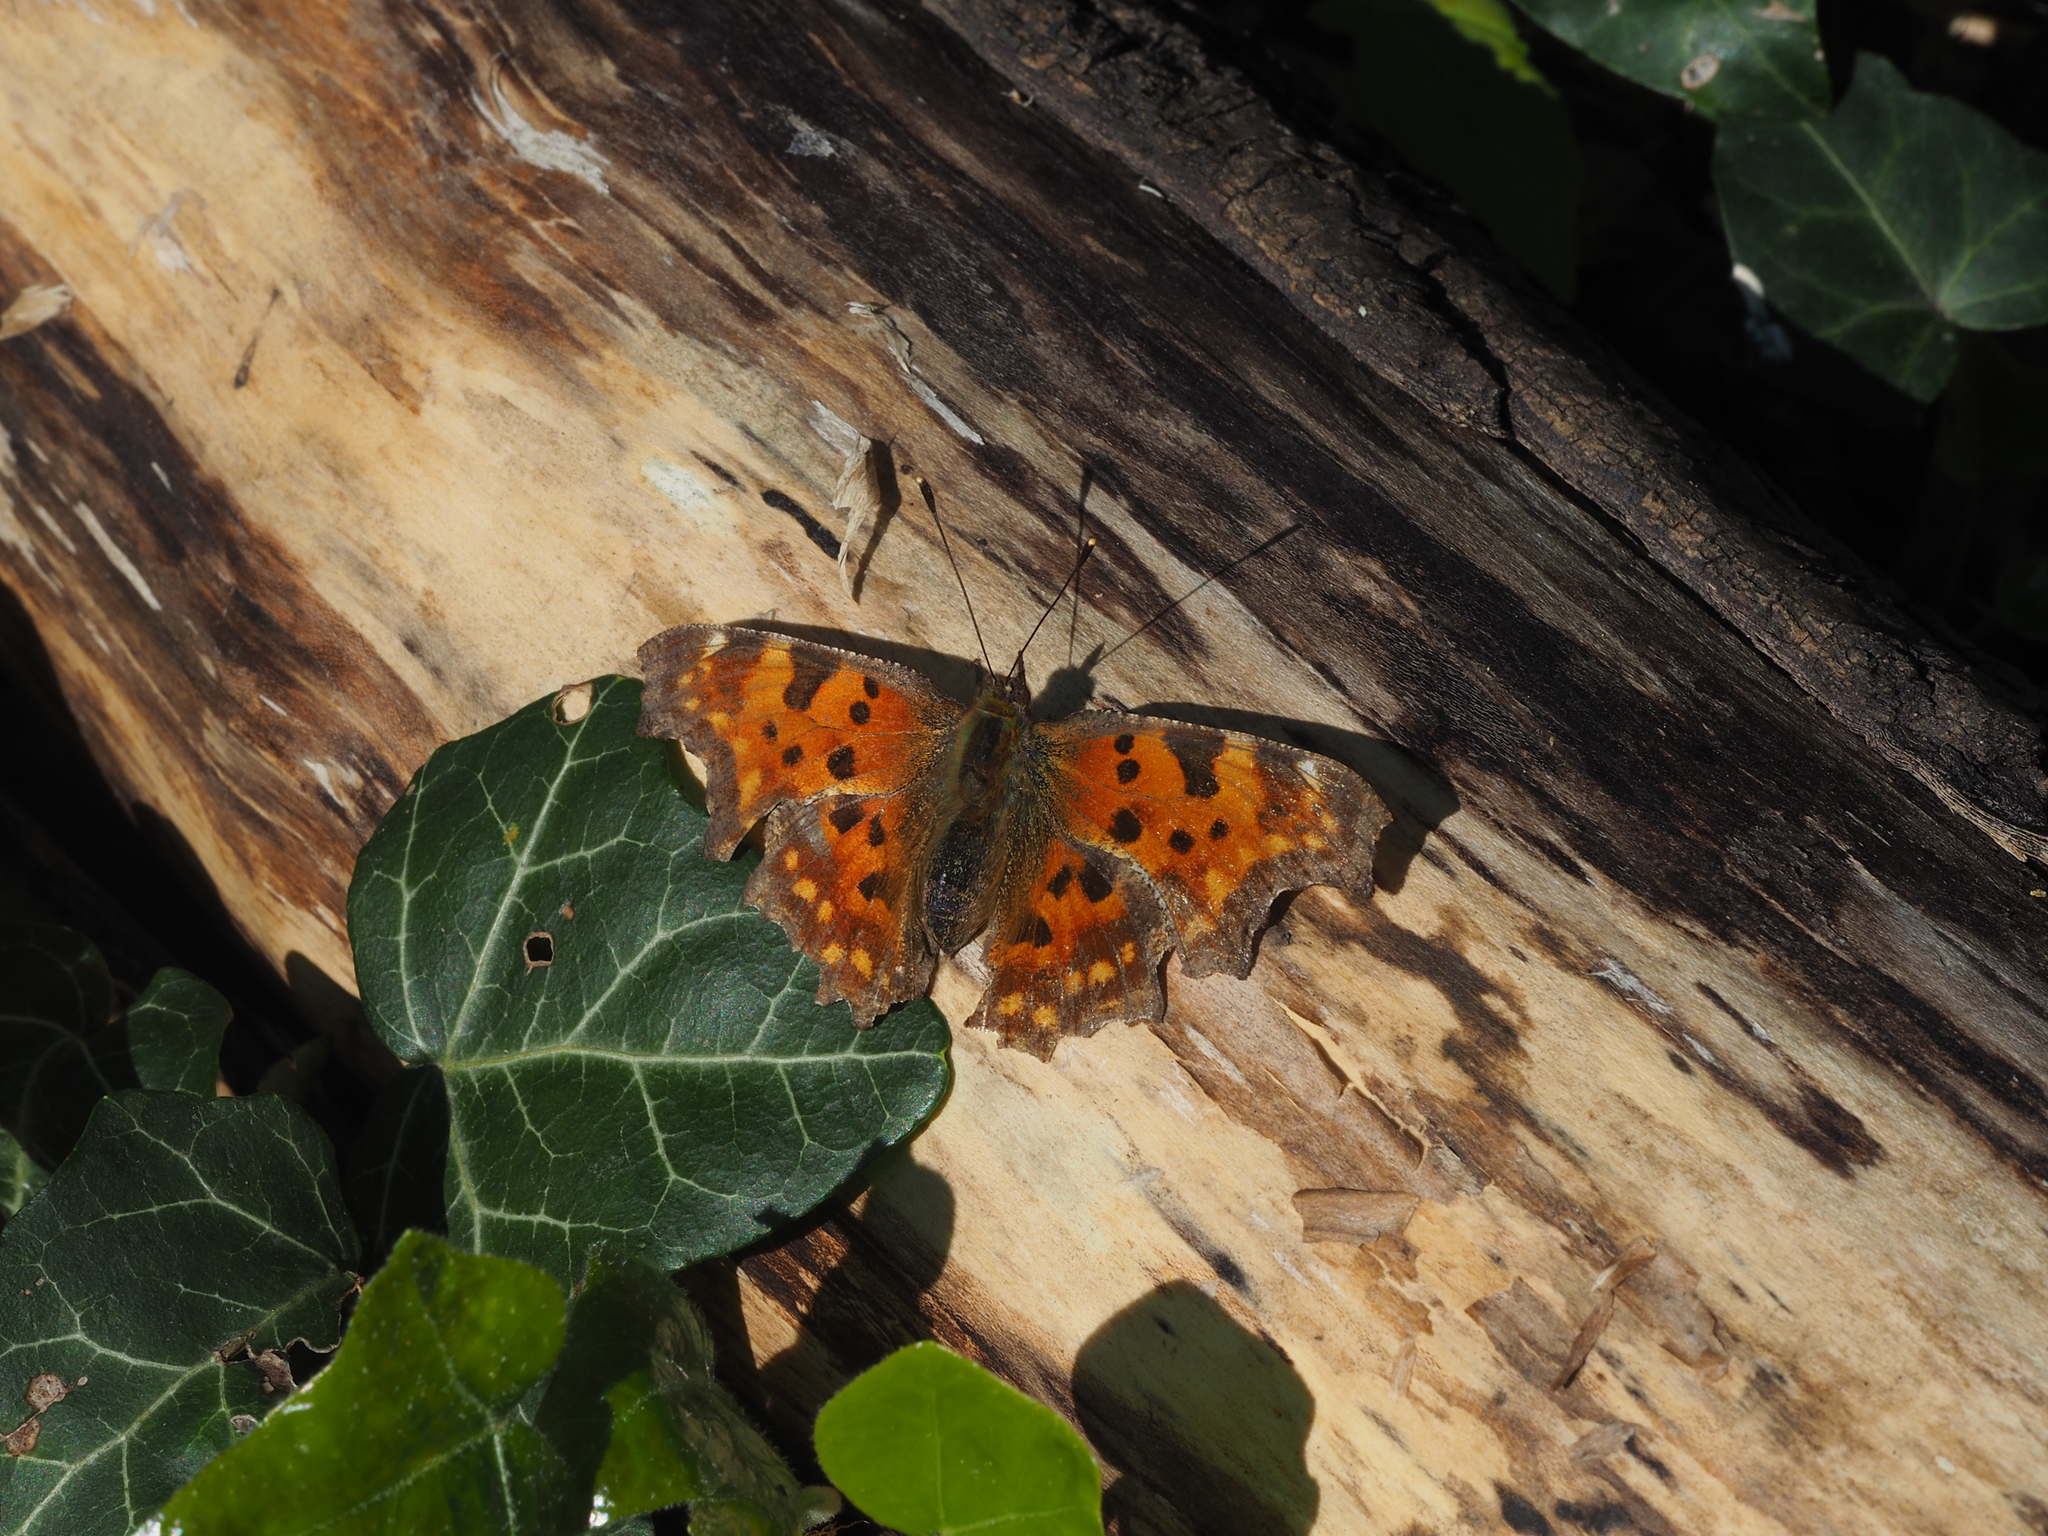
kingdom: Animalia
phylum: Arthropoda
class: Insecta
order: Lepidoptera
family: Nymphalidae
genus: Polygonia
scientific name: Polygonia c-album
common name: Comma
